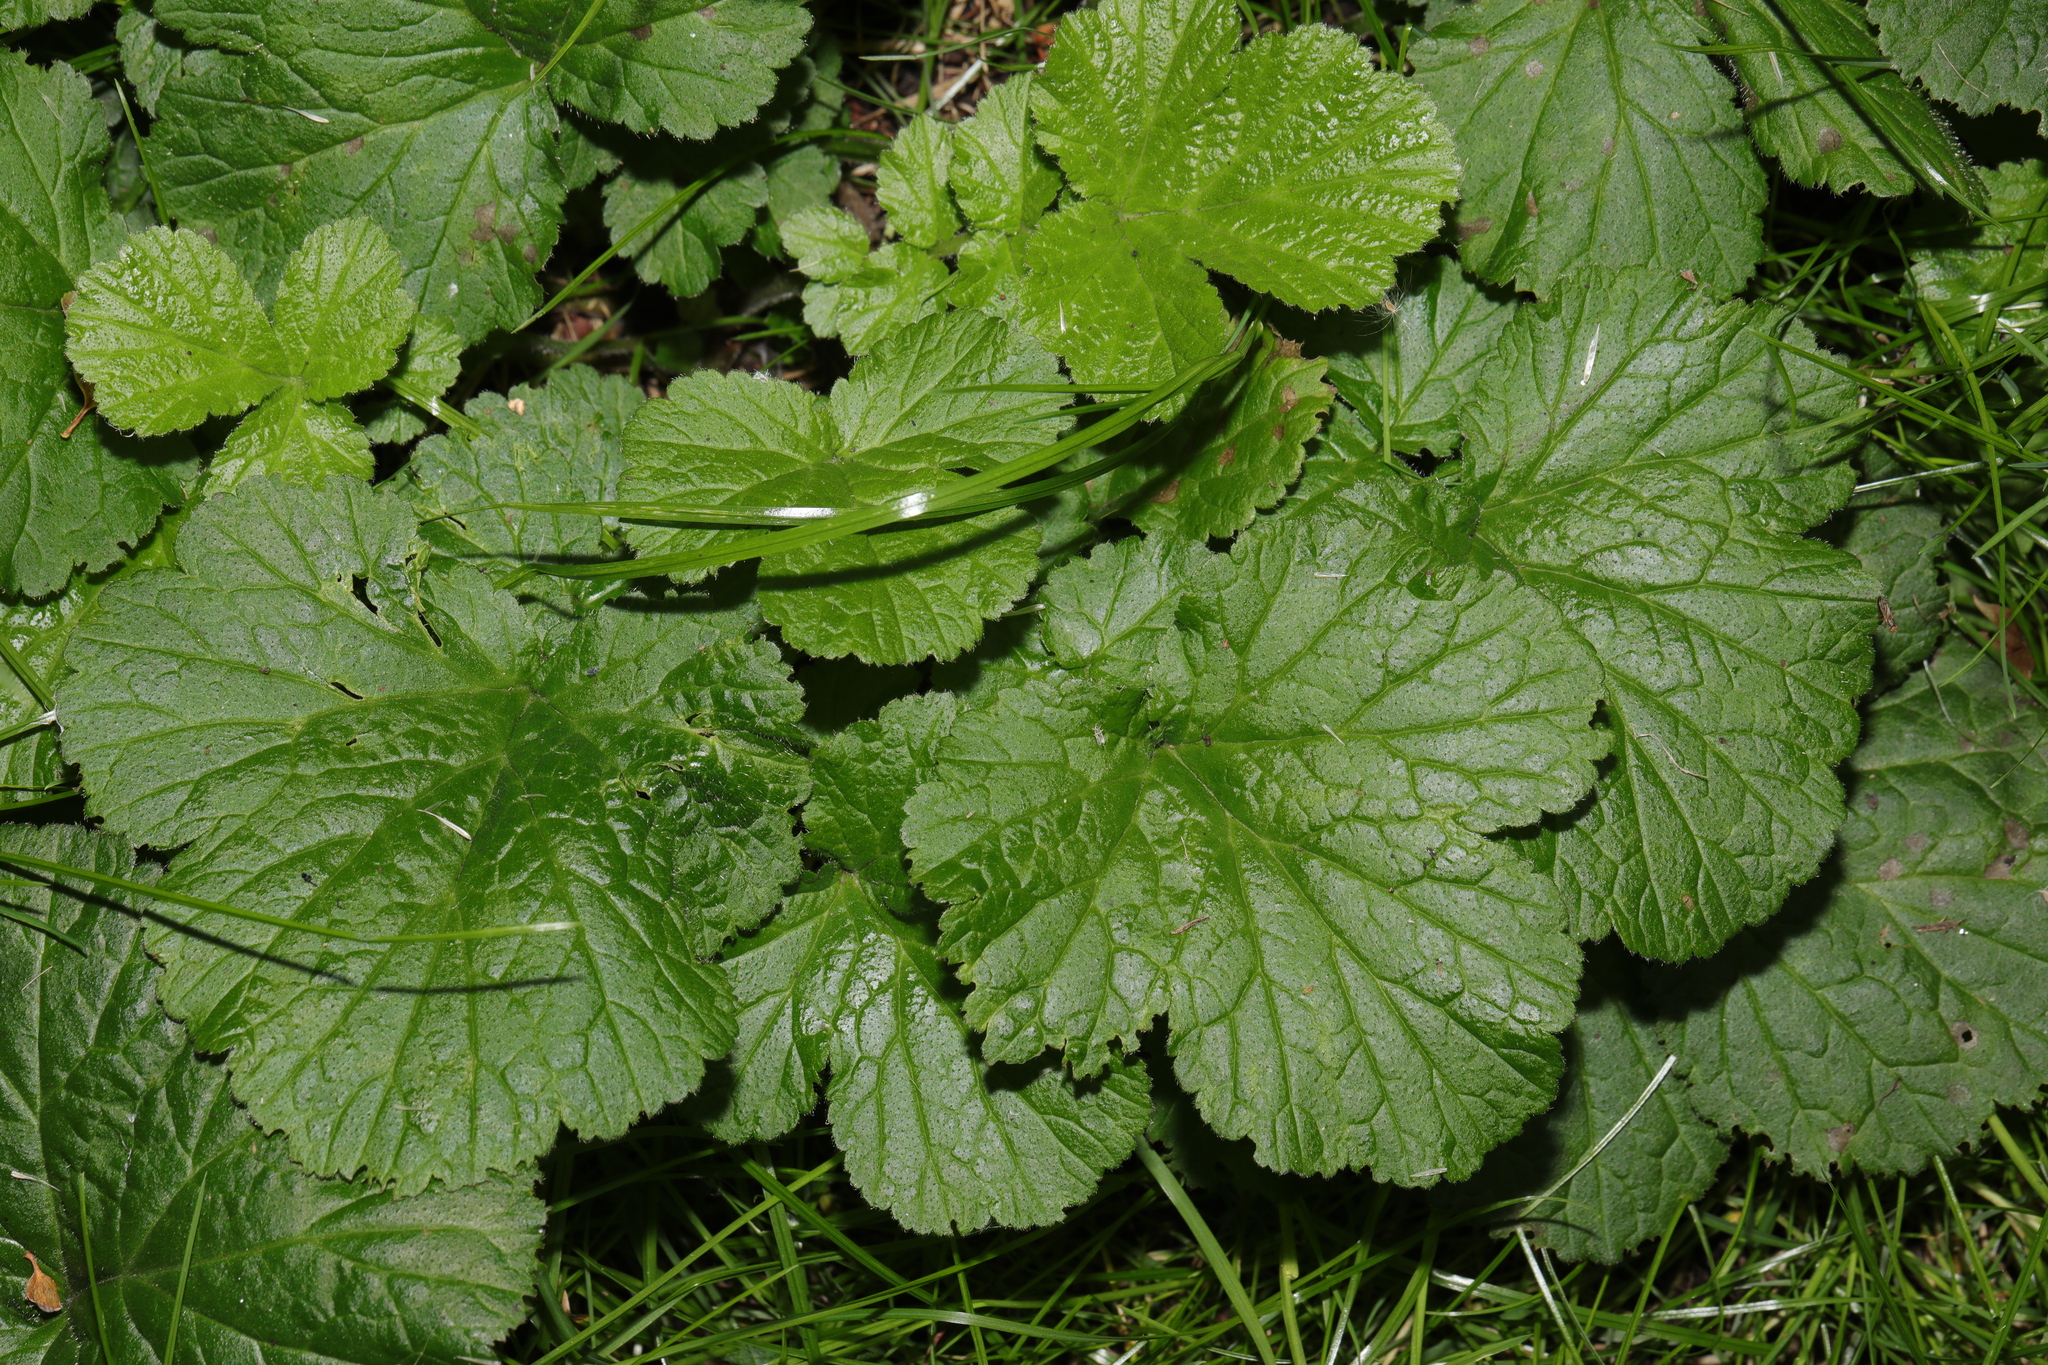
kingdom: Plantae
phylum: Tracheophyta
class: Magnoliopsida
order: Rosales
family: Rosaceae
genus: Geum
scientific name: Geum urbanum
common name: Wood avens
